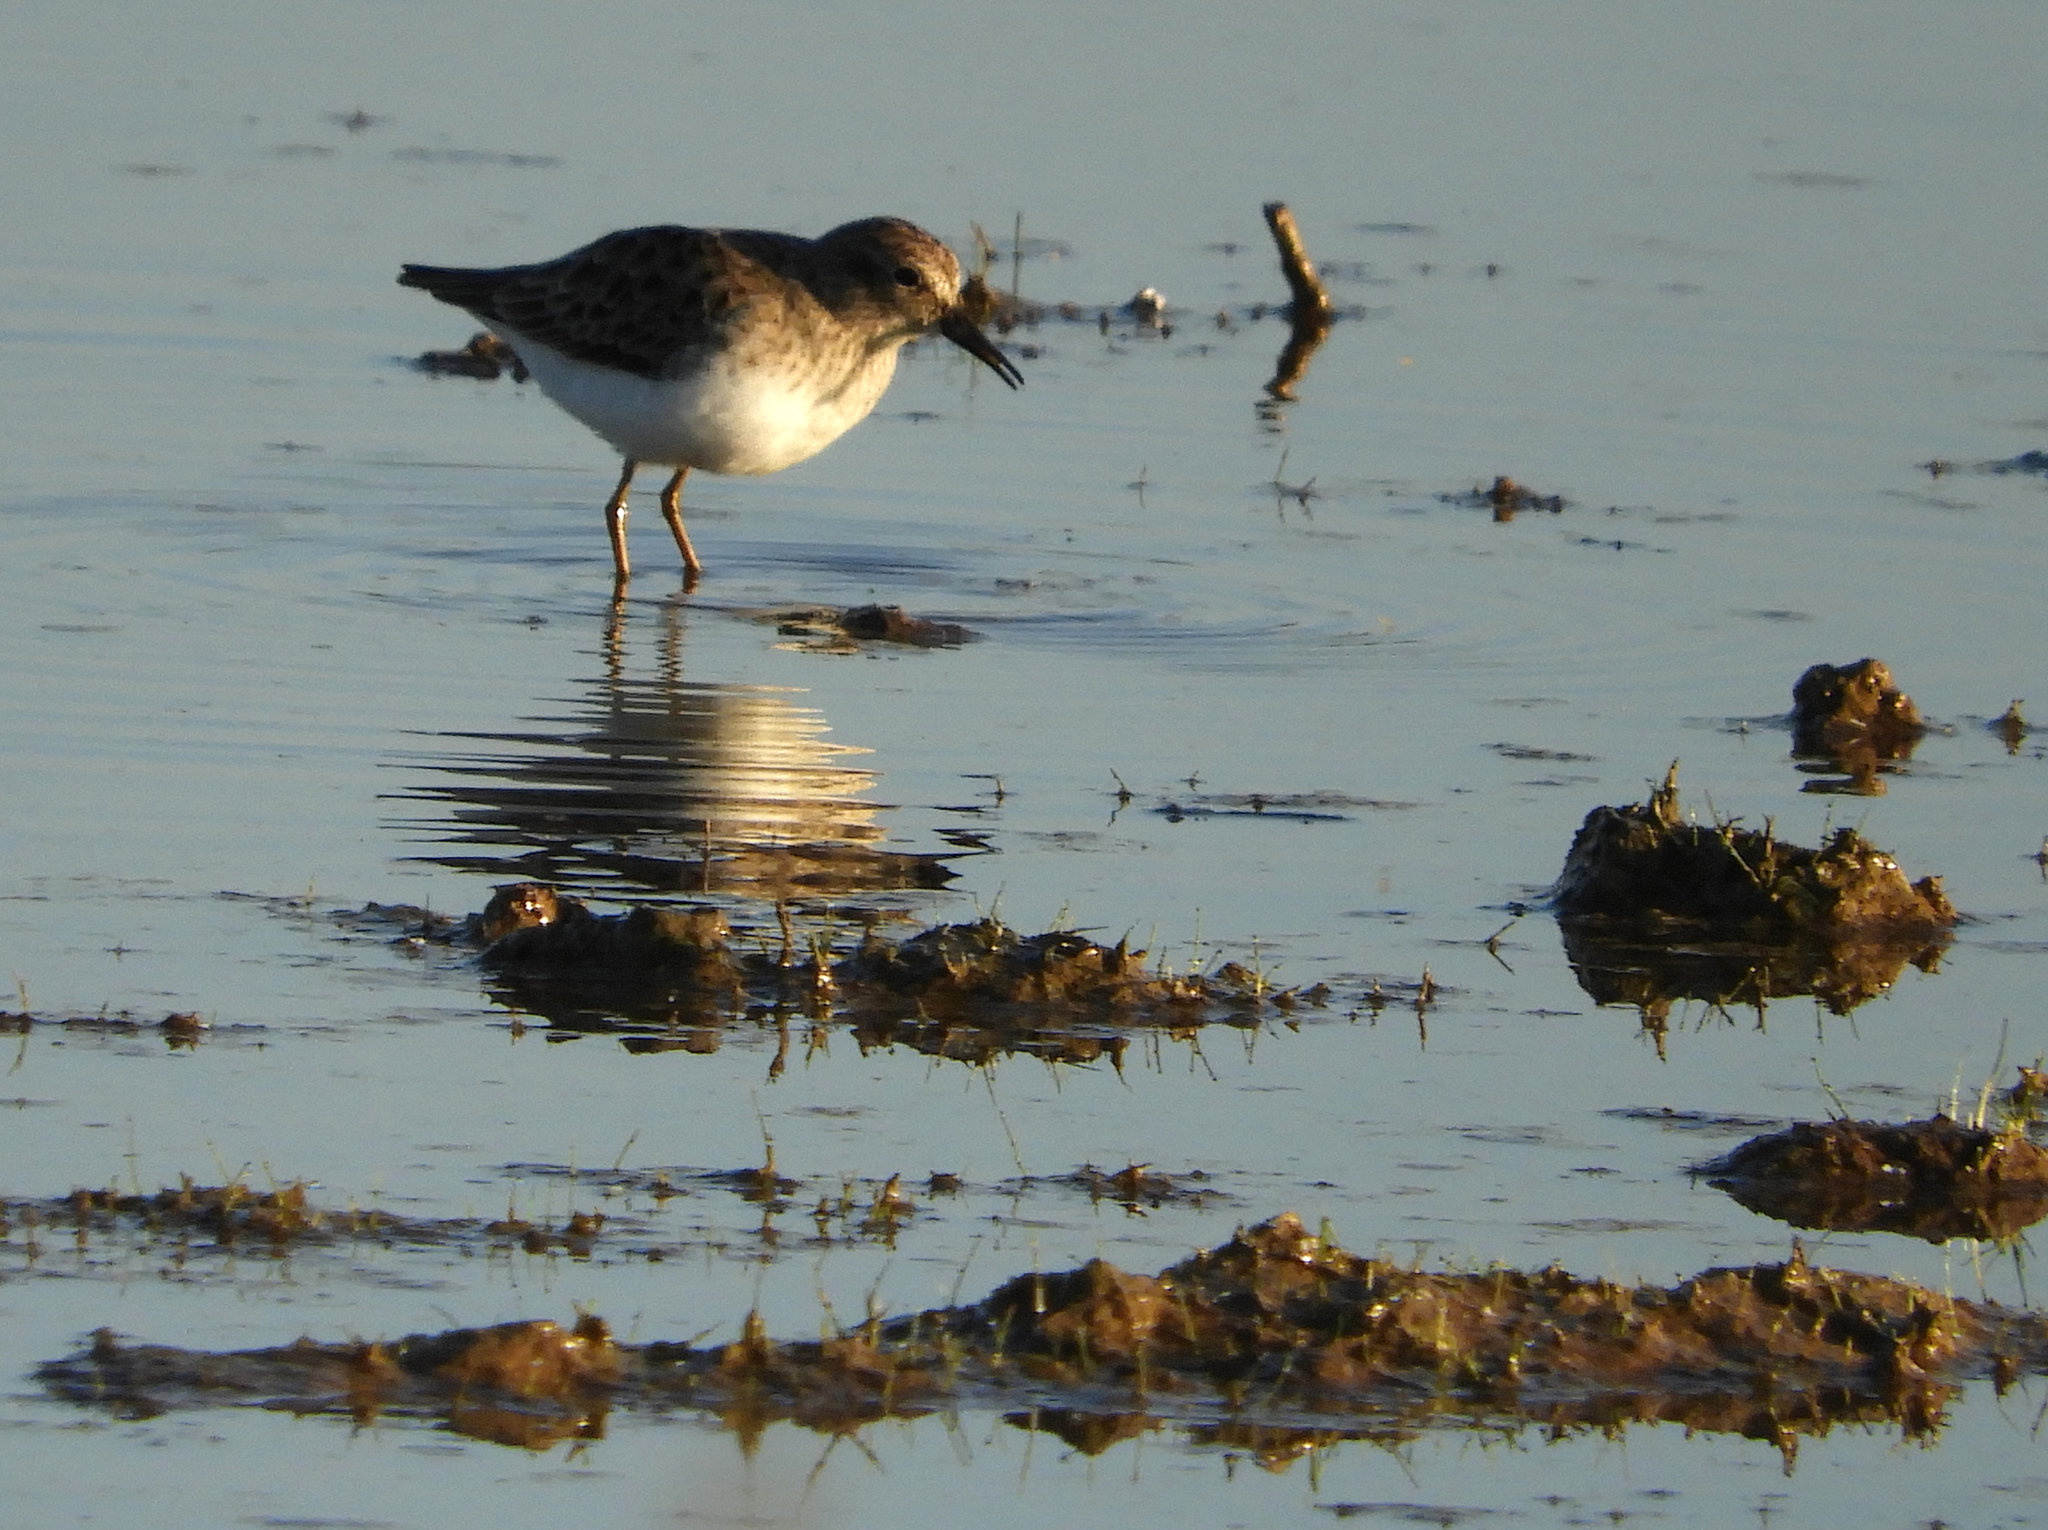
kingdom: Animalia
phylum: Chordata
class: Aves
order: Charadriiformes
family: Scolopacidae
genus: Calidris
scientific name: Calidris minutilla
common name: Least sandpiper
